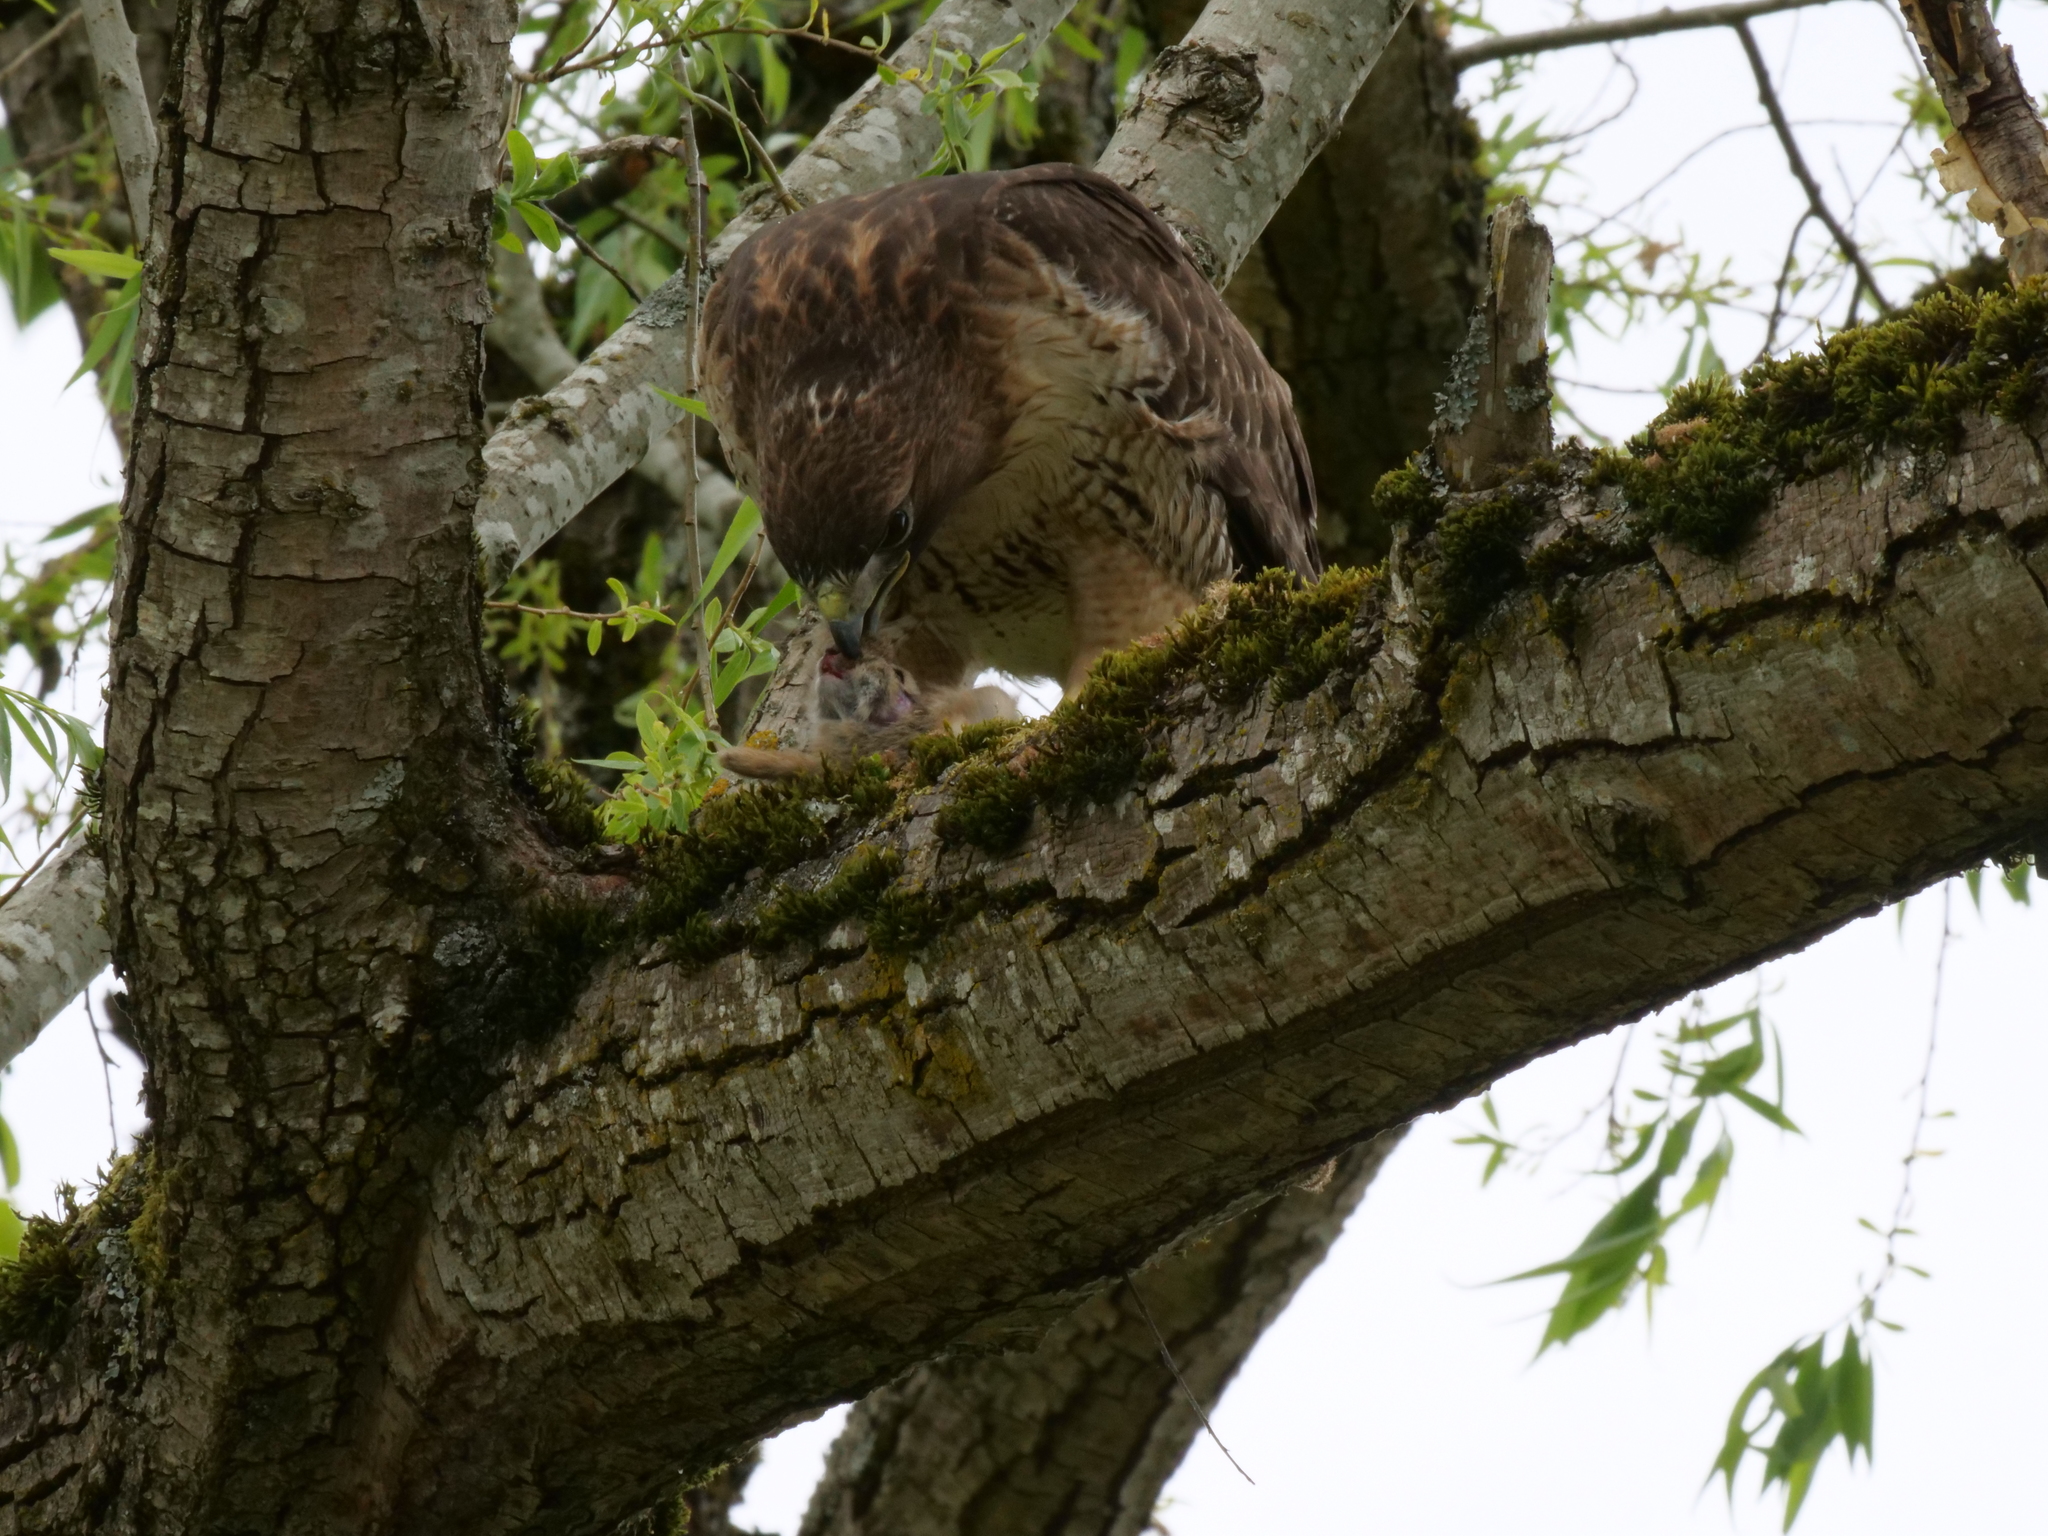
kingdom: Animalia
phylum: Chordata
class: Aves
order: Accipitriformes
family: Accipitridae
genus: Buteo
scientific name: Buteo jamaicensis
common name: Red-tailed hawk
